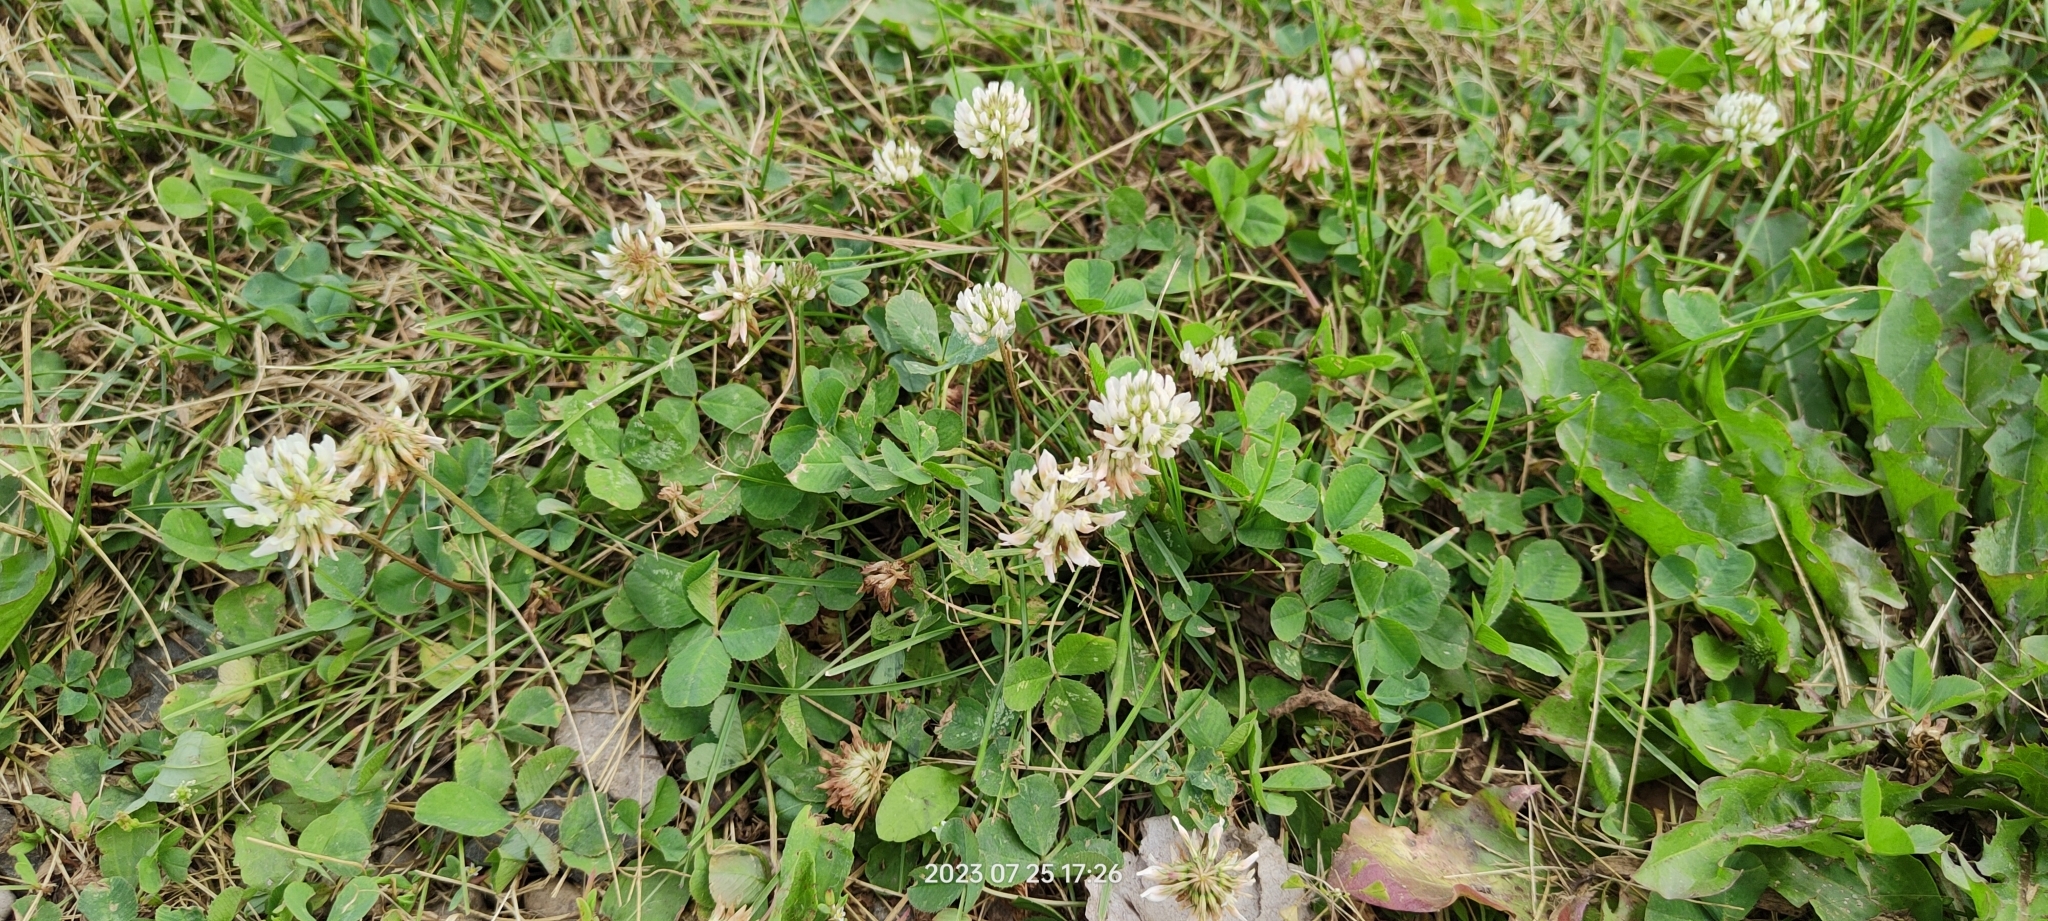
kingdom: Plantae
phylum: Tracheophyta
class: Magnoliopsida
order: Fabales
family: Fabaceae
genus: Trifolium
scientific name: Trifolium repens
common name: White clover
